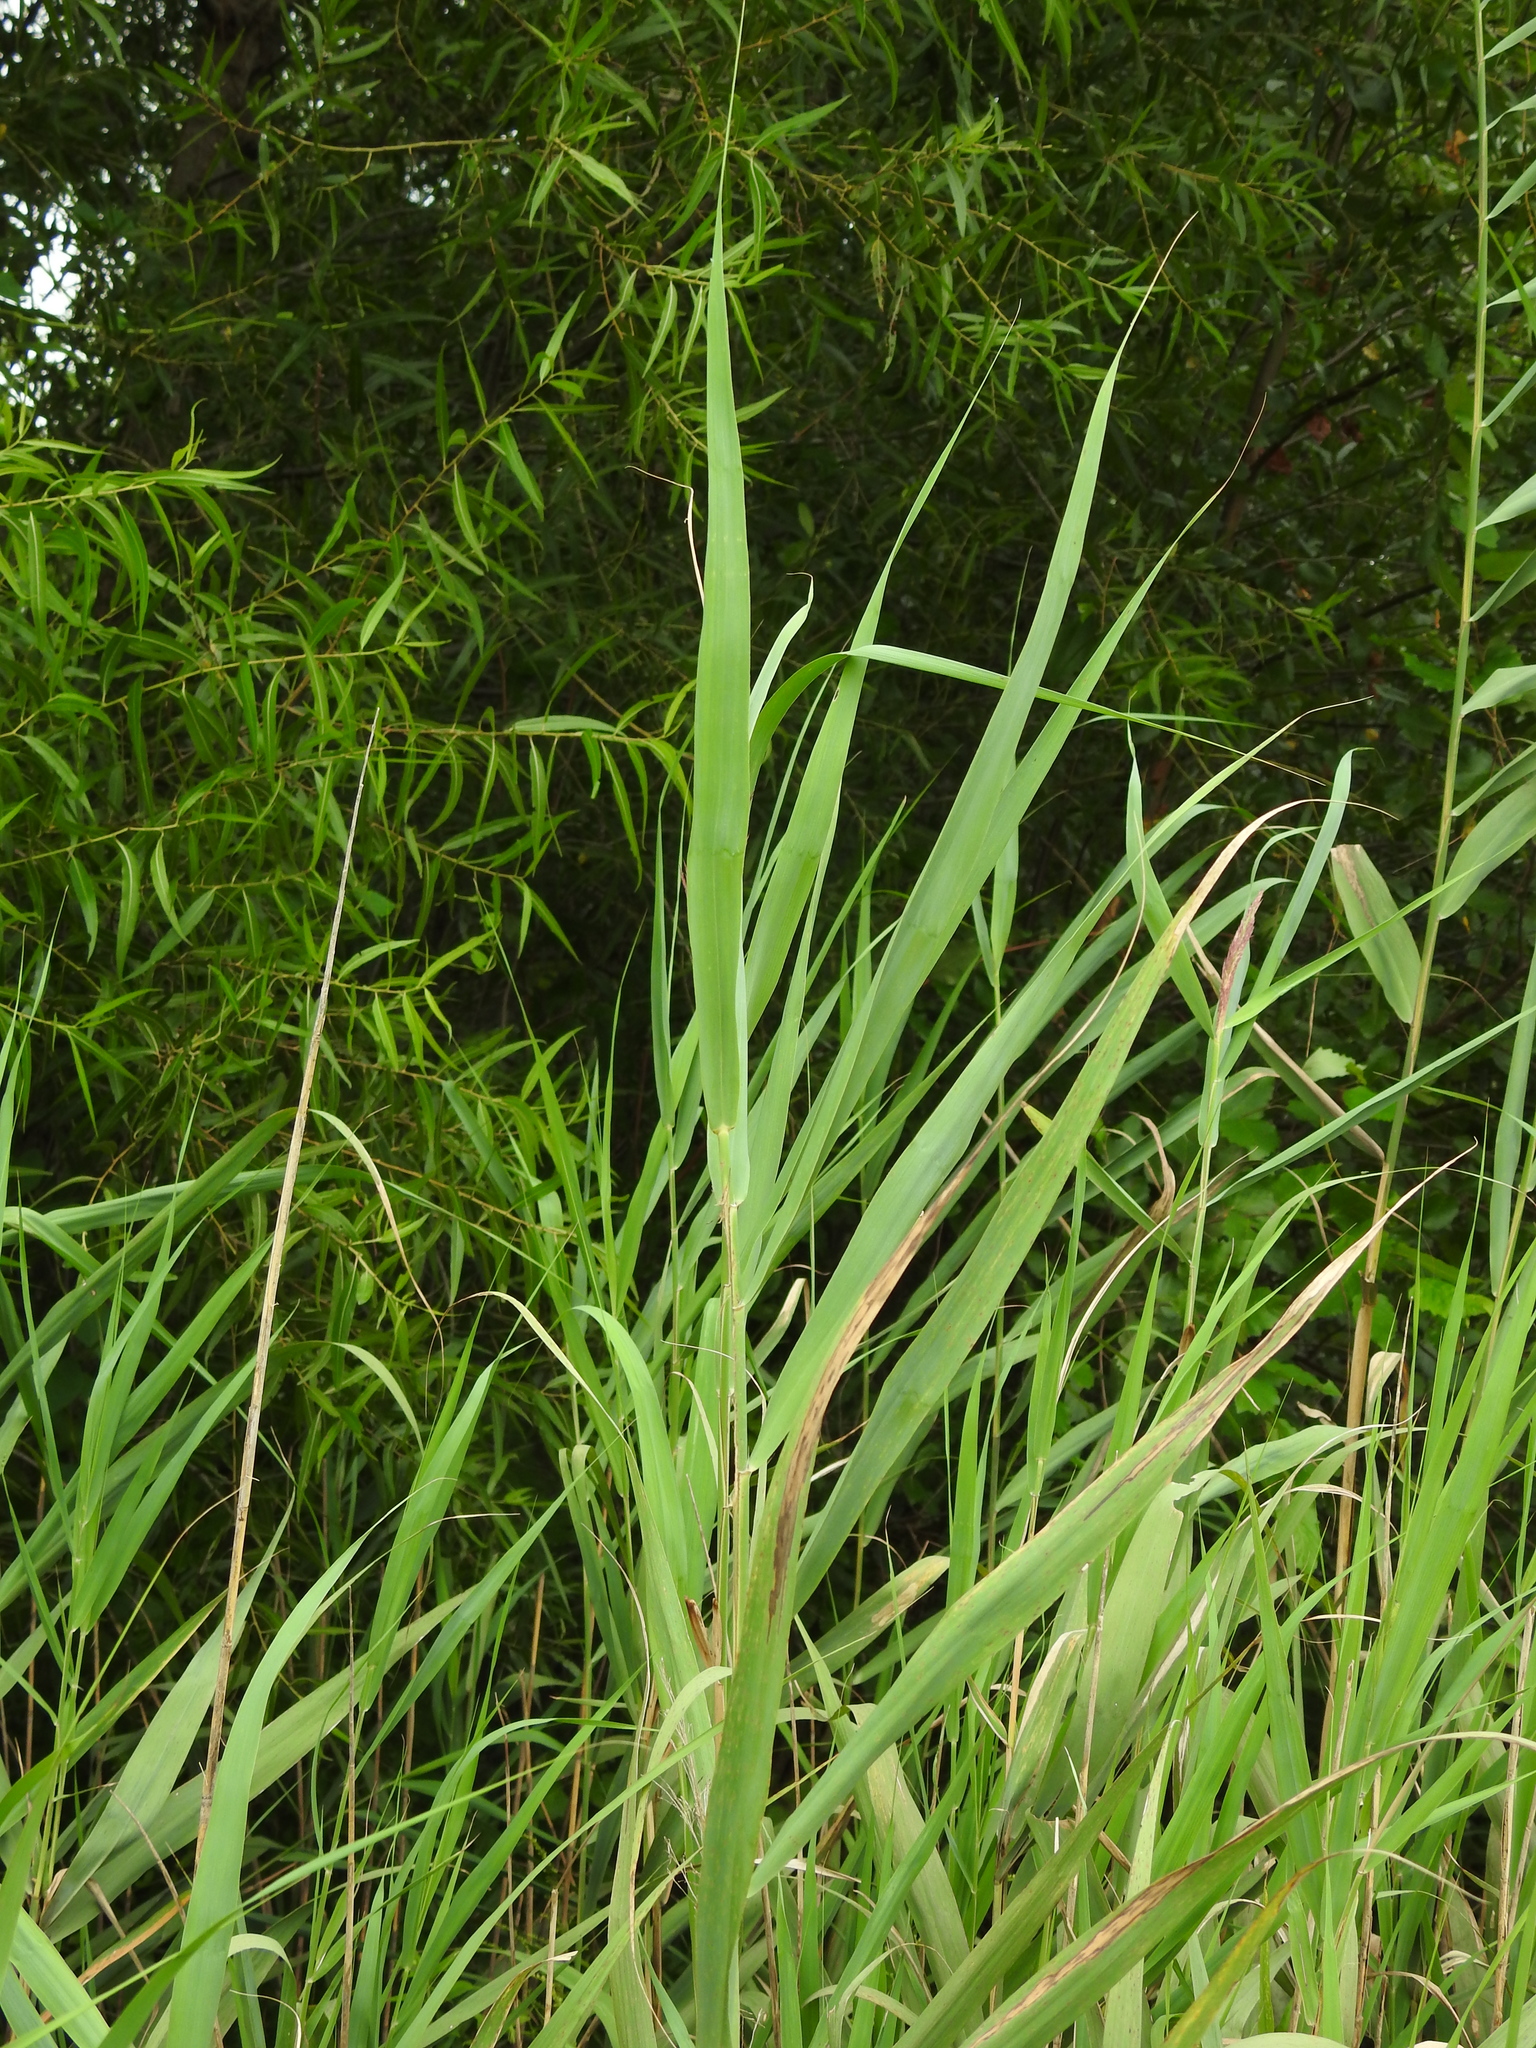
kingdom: Plantae
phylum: Tracheophyta
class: Liliopsida
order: Poales
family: Poaceae
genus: Phragmites
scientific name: Phragmites australis
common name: Common reed
